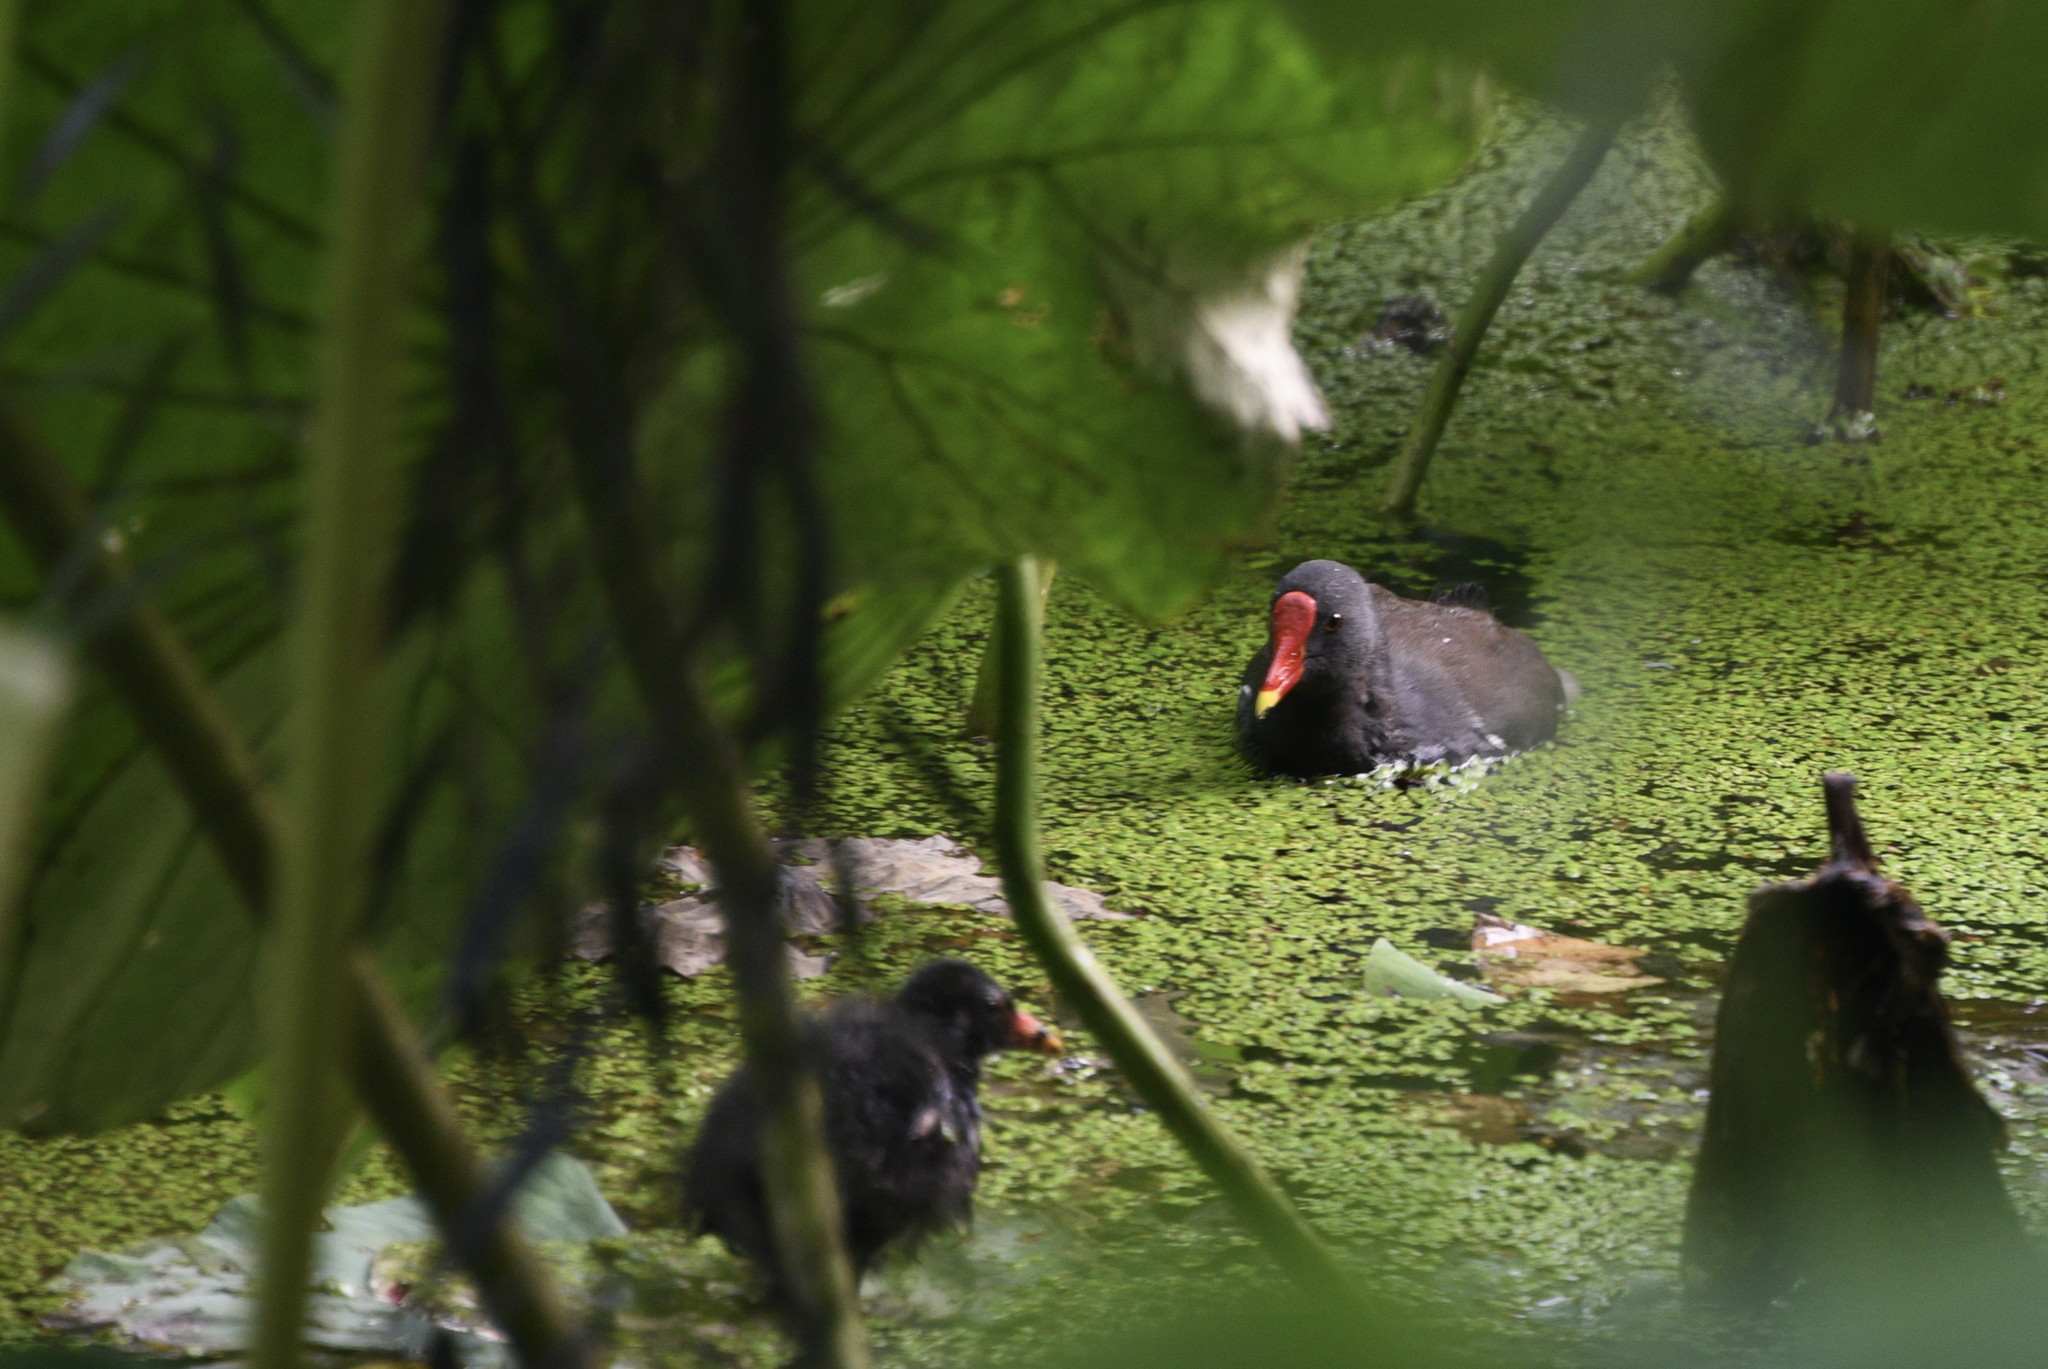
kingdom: Animalia
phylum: Chordata
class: Aves
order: Gruiformes
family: Rallidae
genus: Gallinula
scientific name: Gallinula chloropus
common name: Common moorhen
